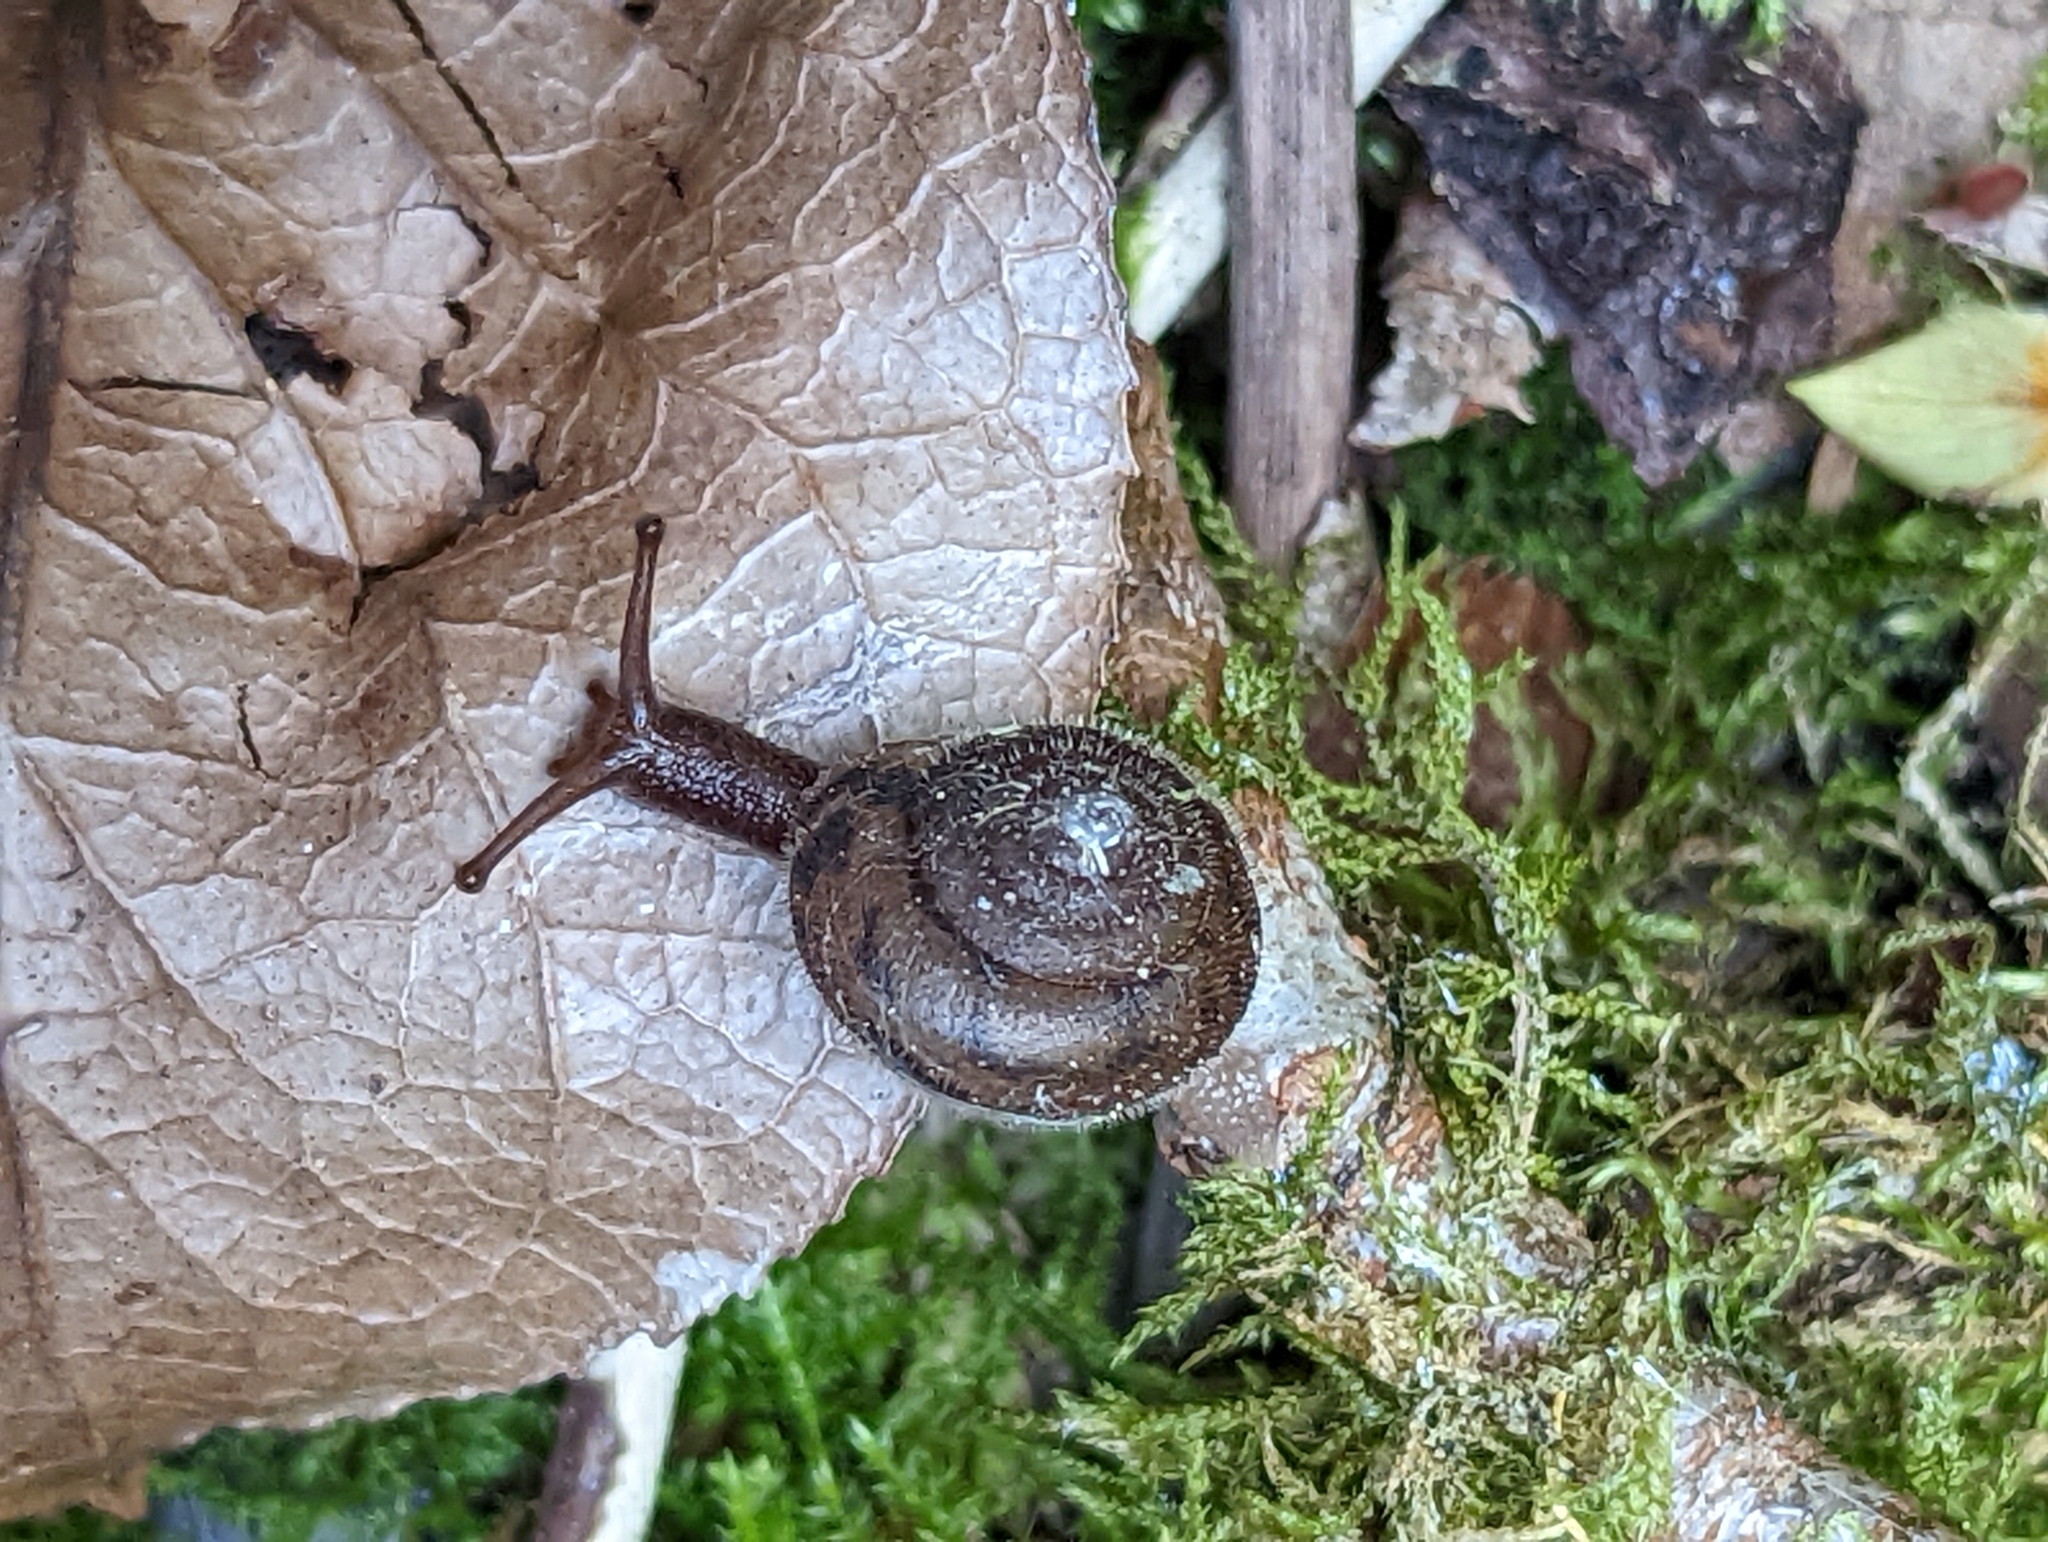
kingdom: Animalia
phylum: Mollusca
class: Gastropoda
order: Stylommatophora
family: Polygyridae
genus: Vespericola
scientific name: Vespericola columbianus
